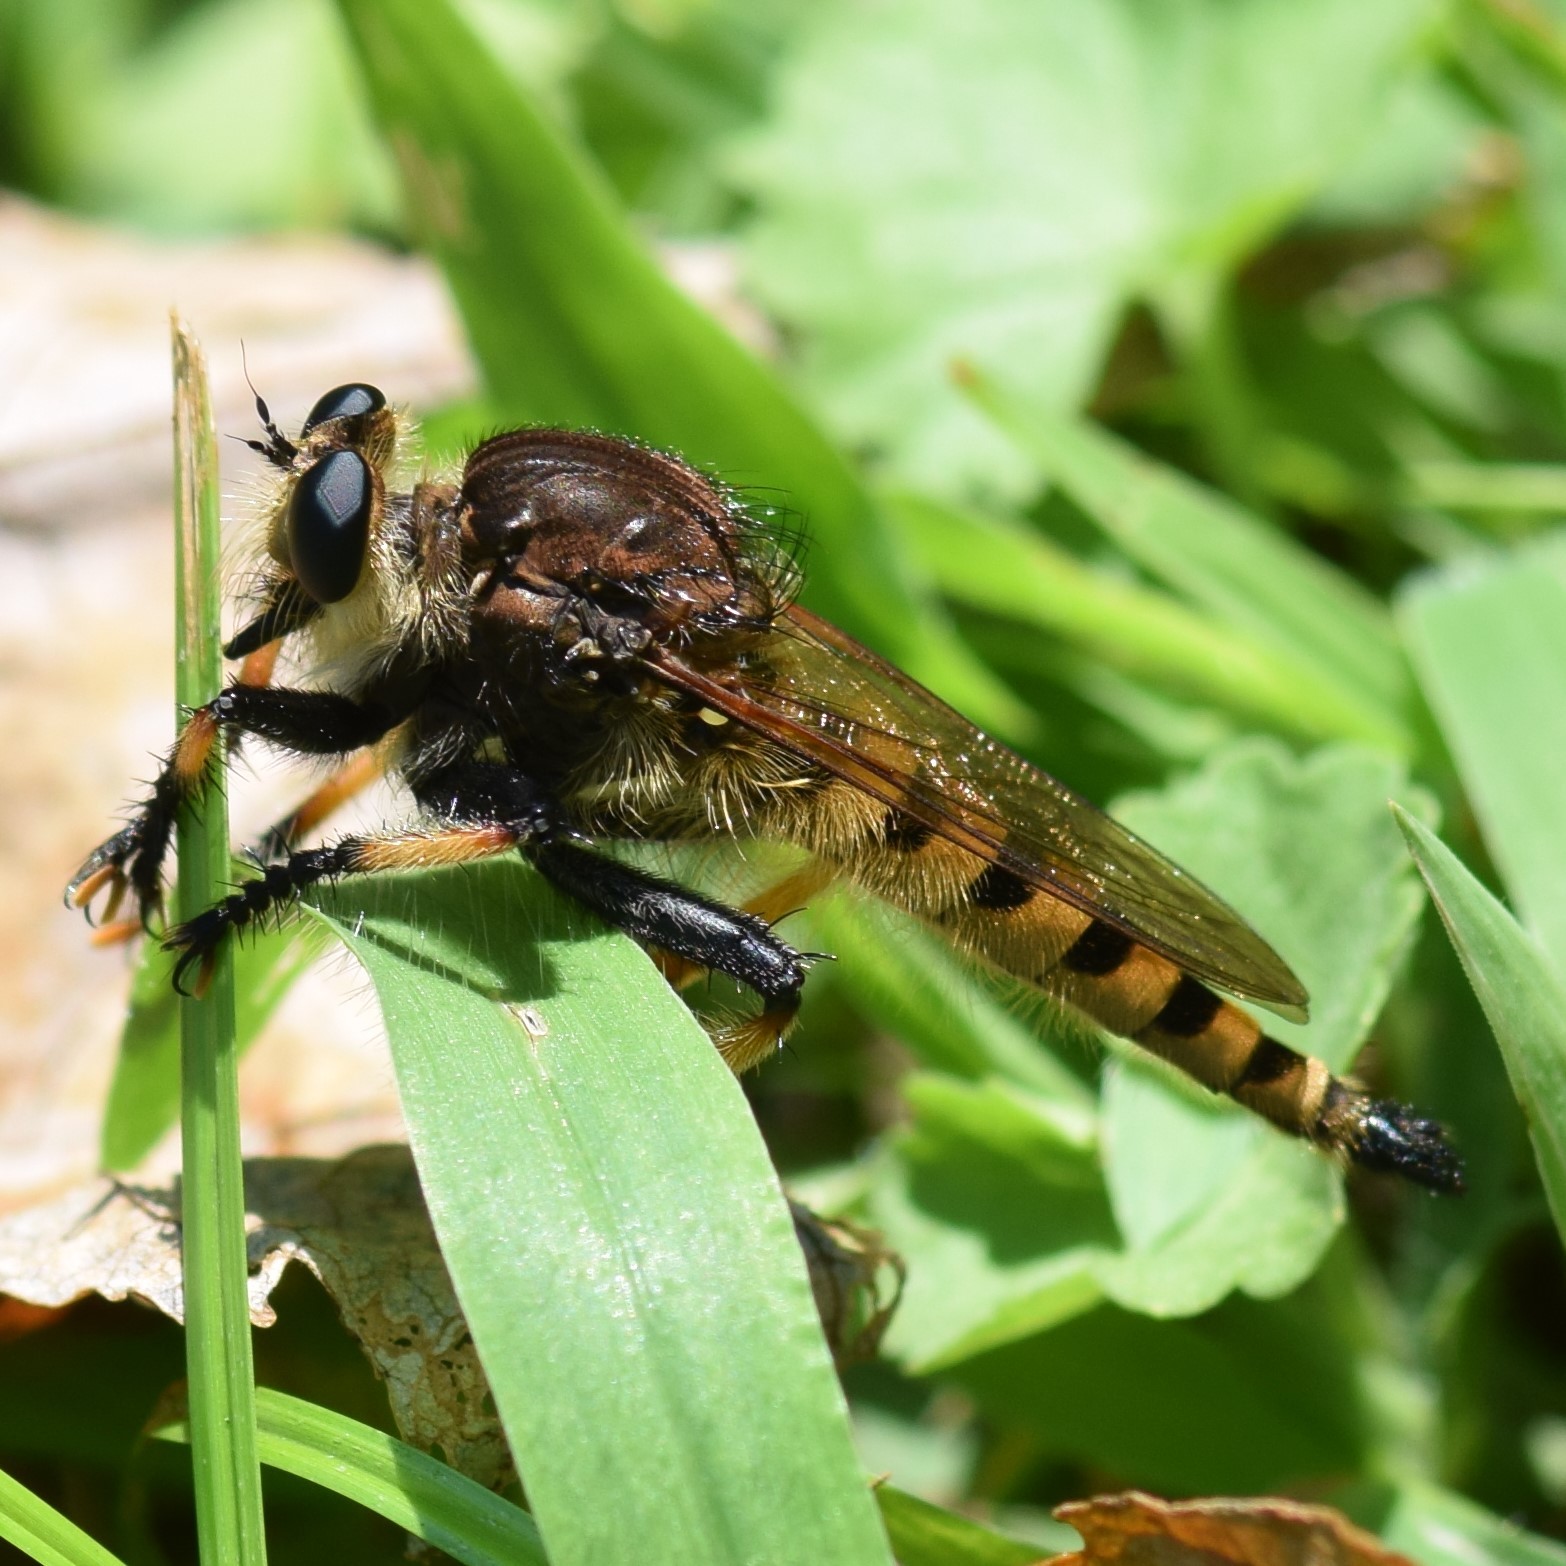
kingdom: Animalia
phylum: Arthropoda
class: Insecta
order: Diptera
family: Asilidae
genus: Promachus
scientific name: Promachus rufipes
